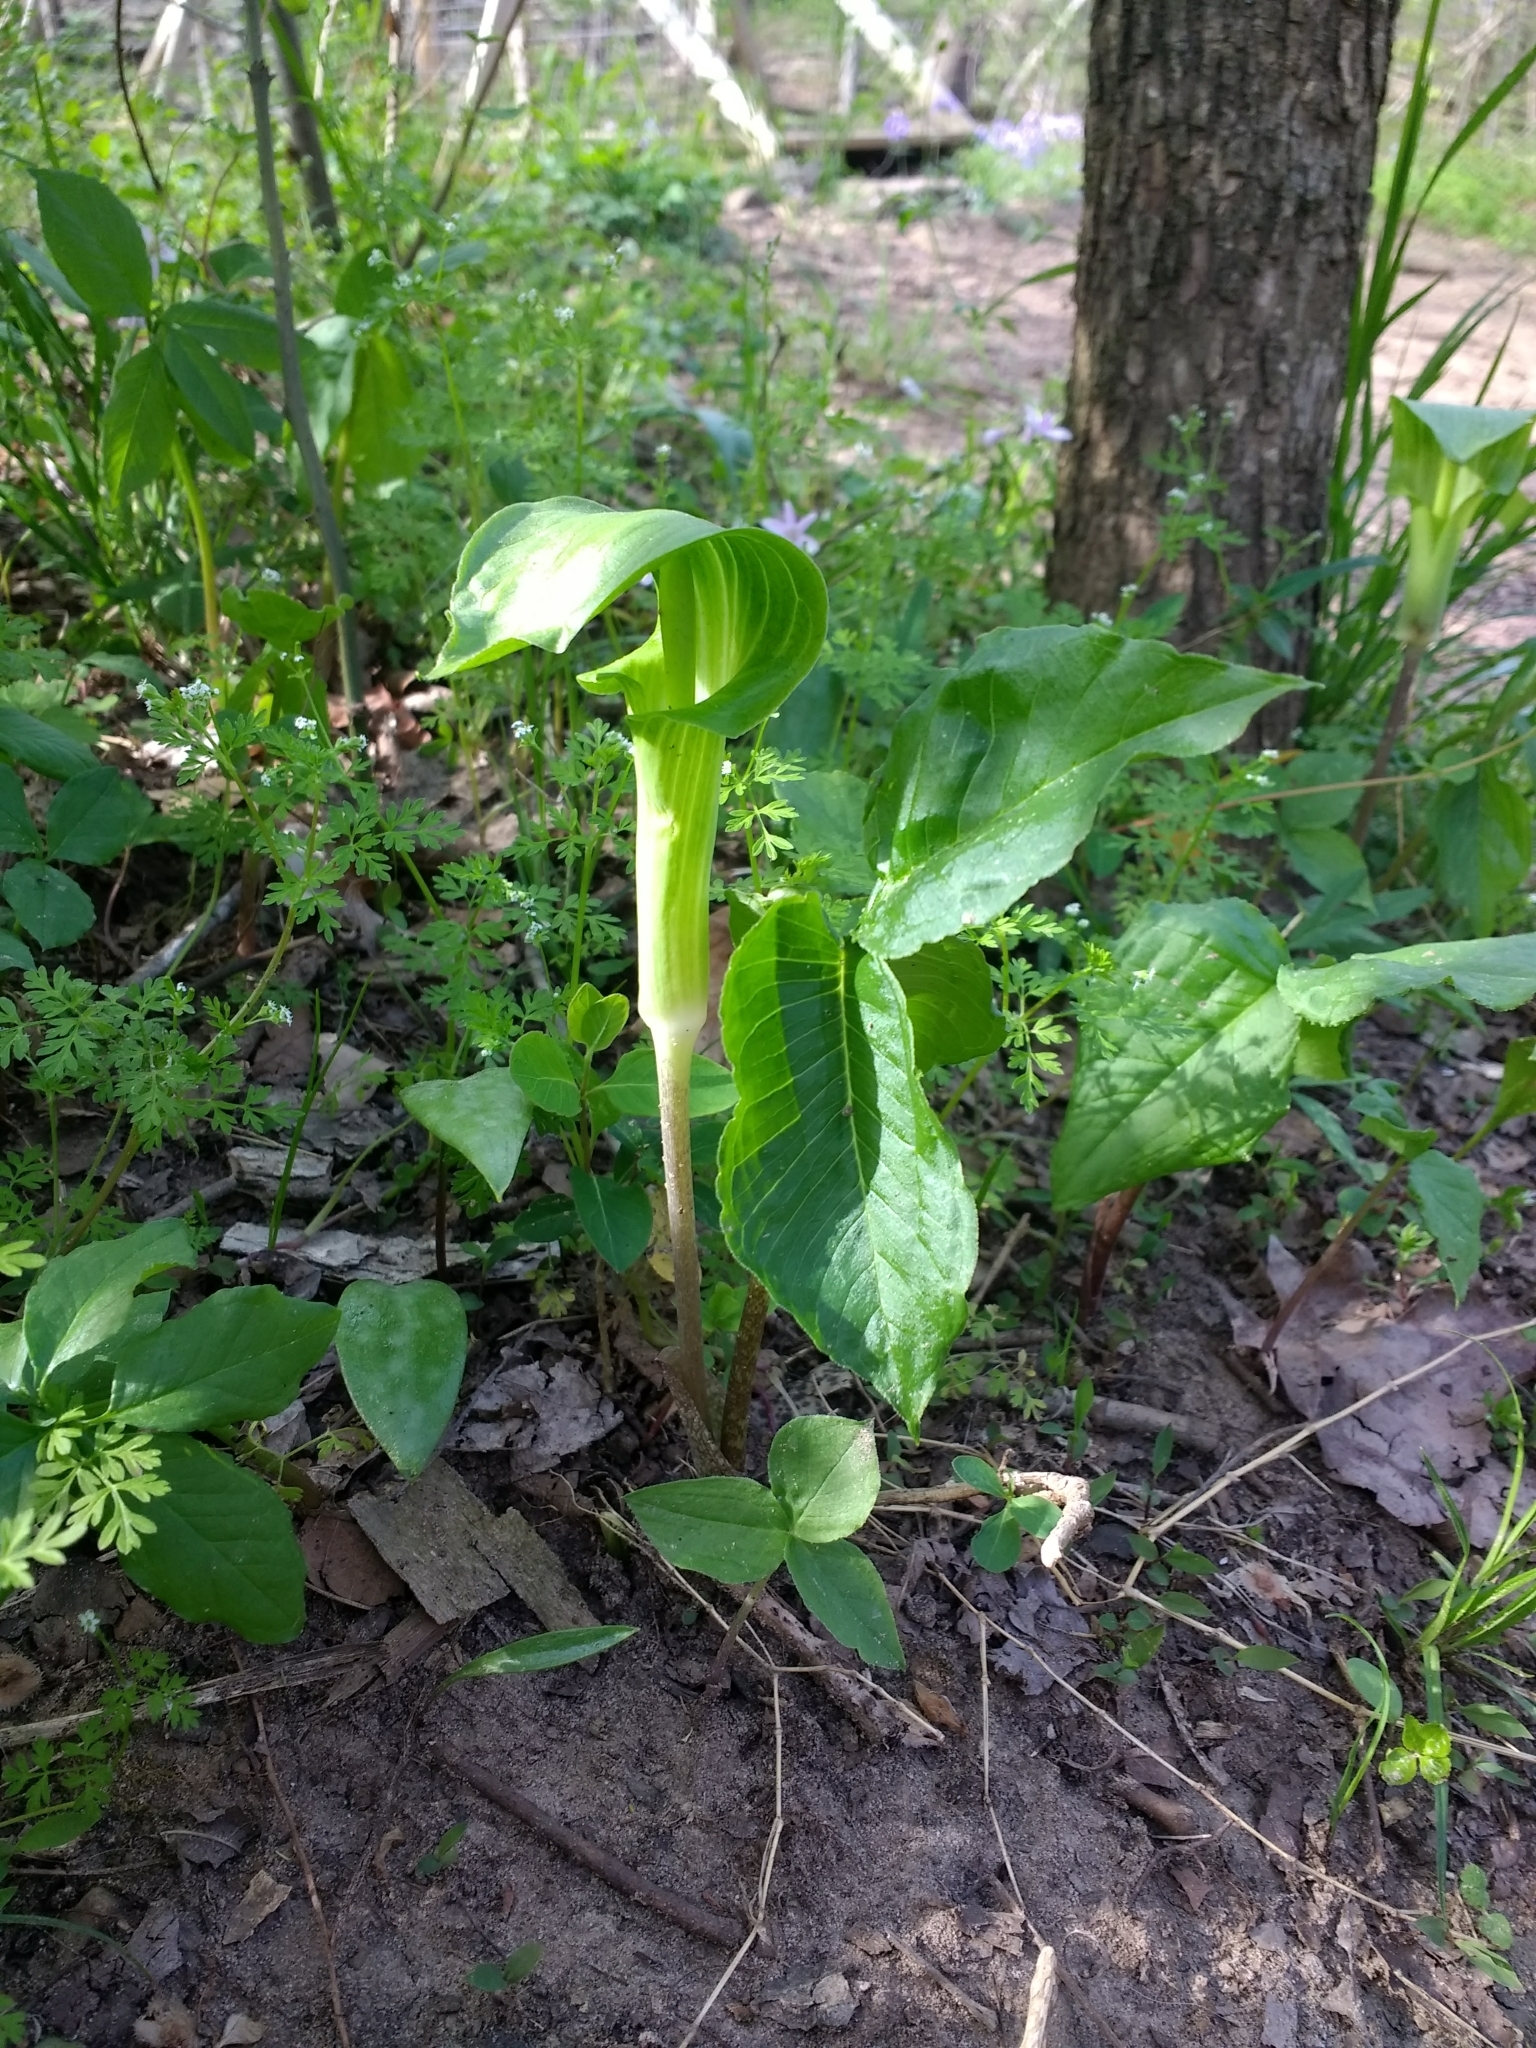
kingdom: Plantae
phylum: Tracheophyta
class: Liliopsida
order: Alismatales
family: Araceae
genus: Arisaema
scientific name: Arisaema triphyllum
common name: Jack-in-the-pulpit
